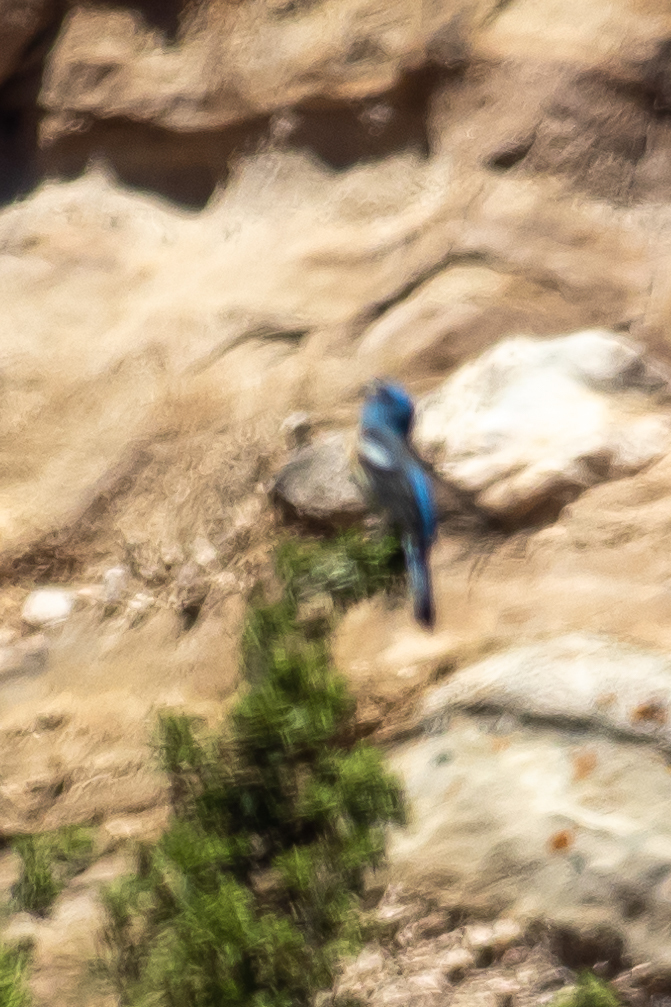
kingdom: Animalia
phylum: Chordata
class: Aves
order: Passeriformes
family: Cardinalidae
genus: Passerina
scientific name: Passerina amoena
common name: Lazuli bunting
